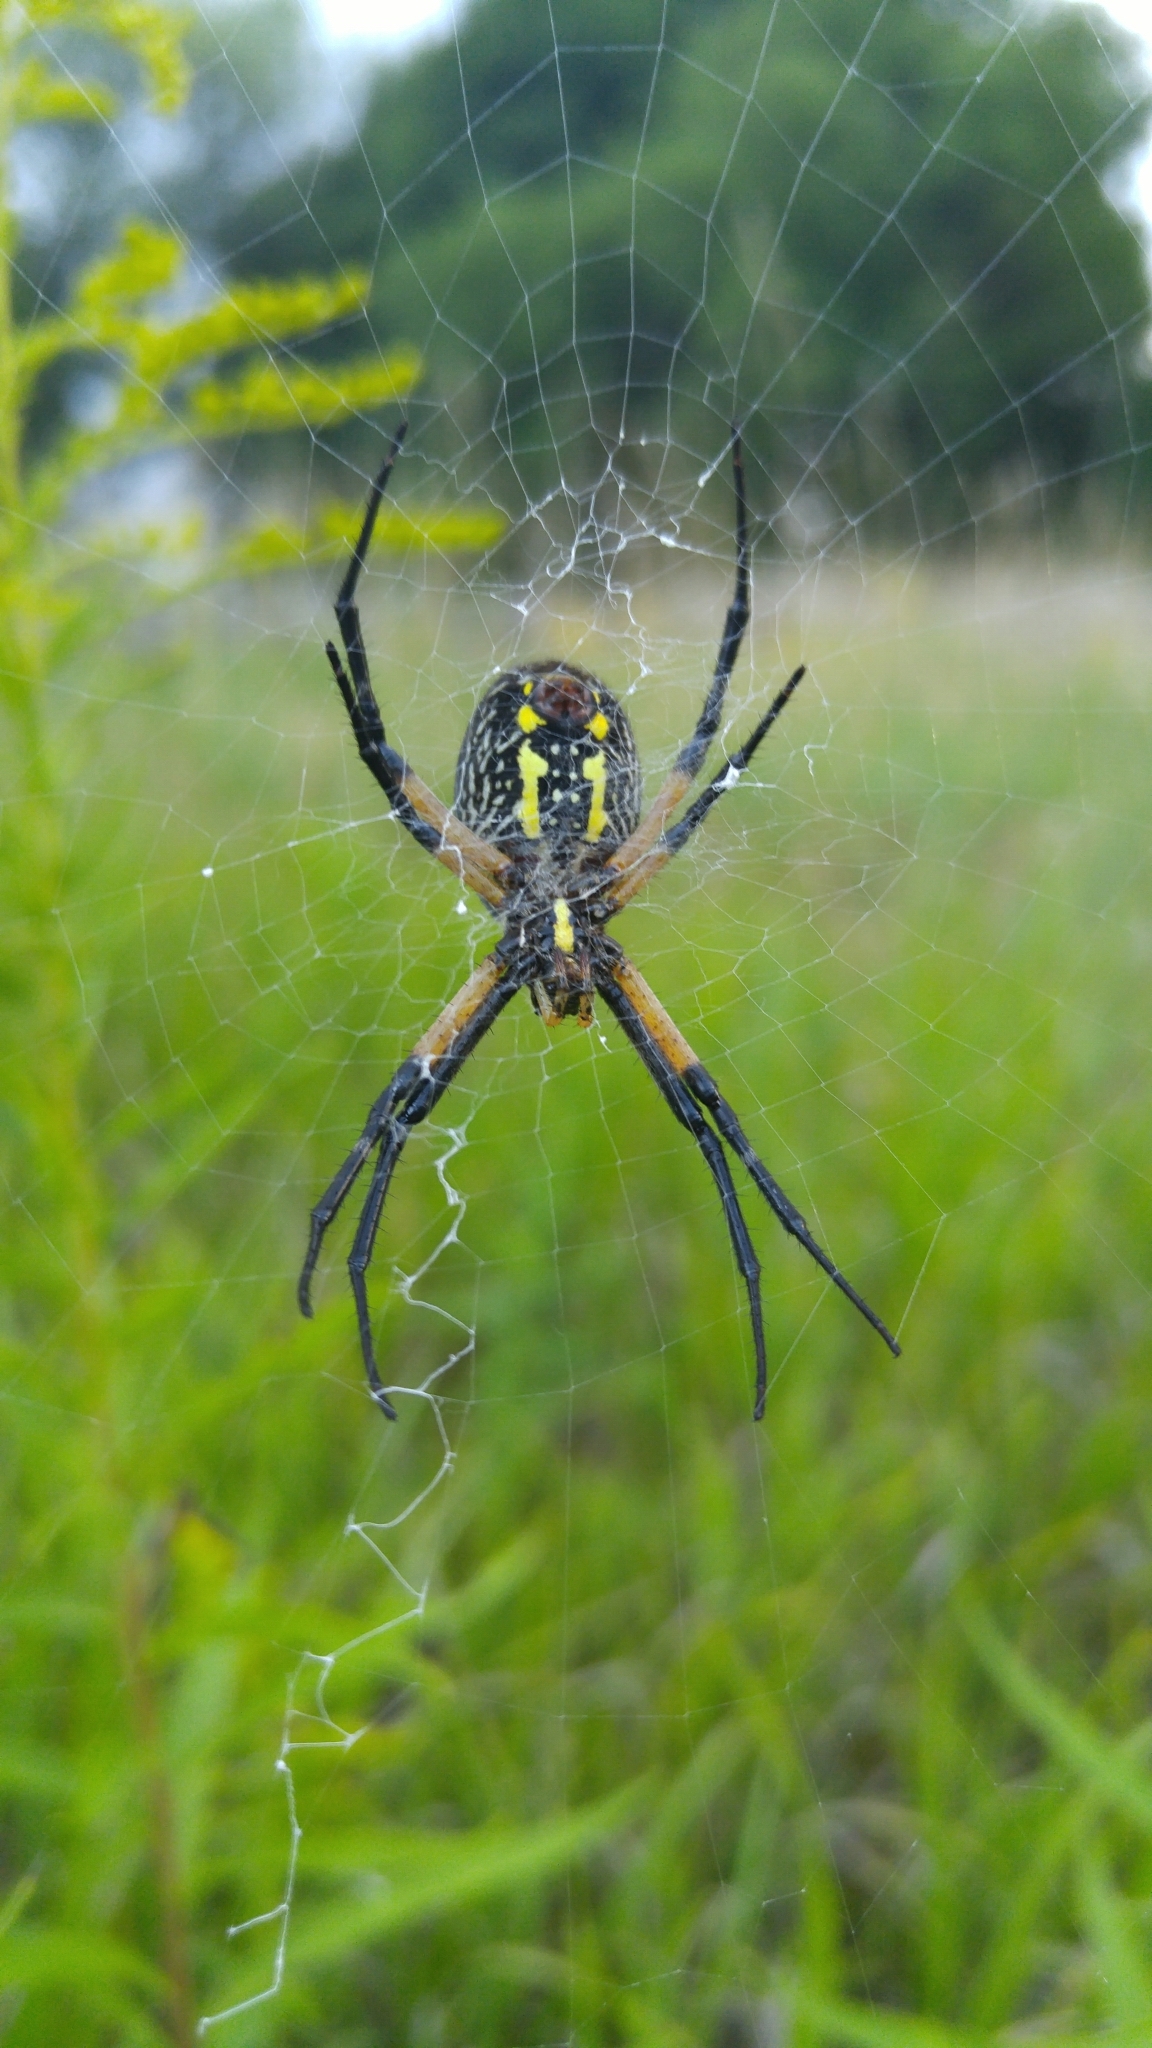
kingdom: Animalia
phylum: Arthropoda
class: Arachnida
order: Araneae
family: Araneidae
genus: Argiope
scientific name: Argiope aurantia
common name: Orb weavers
